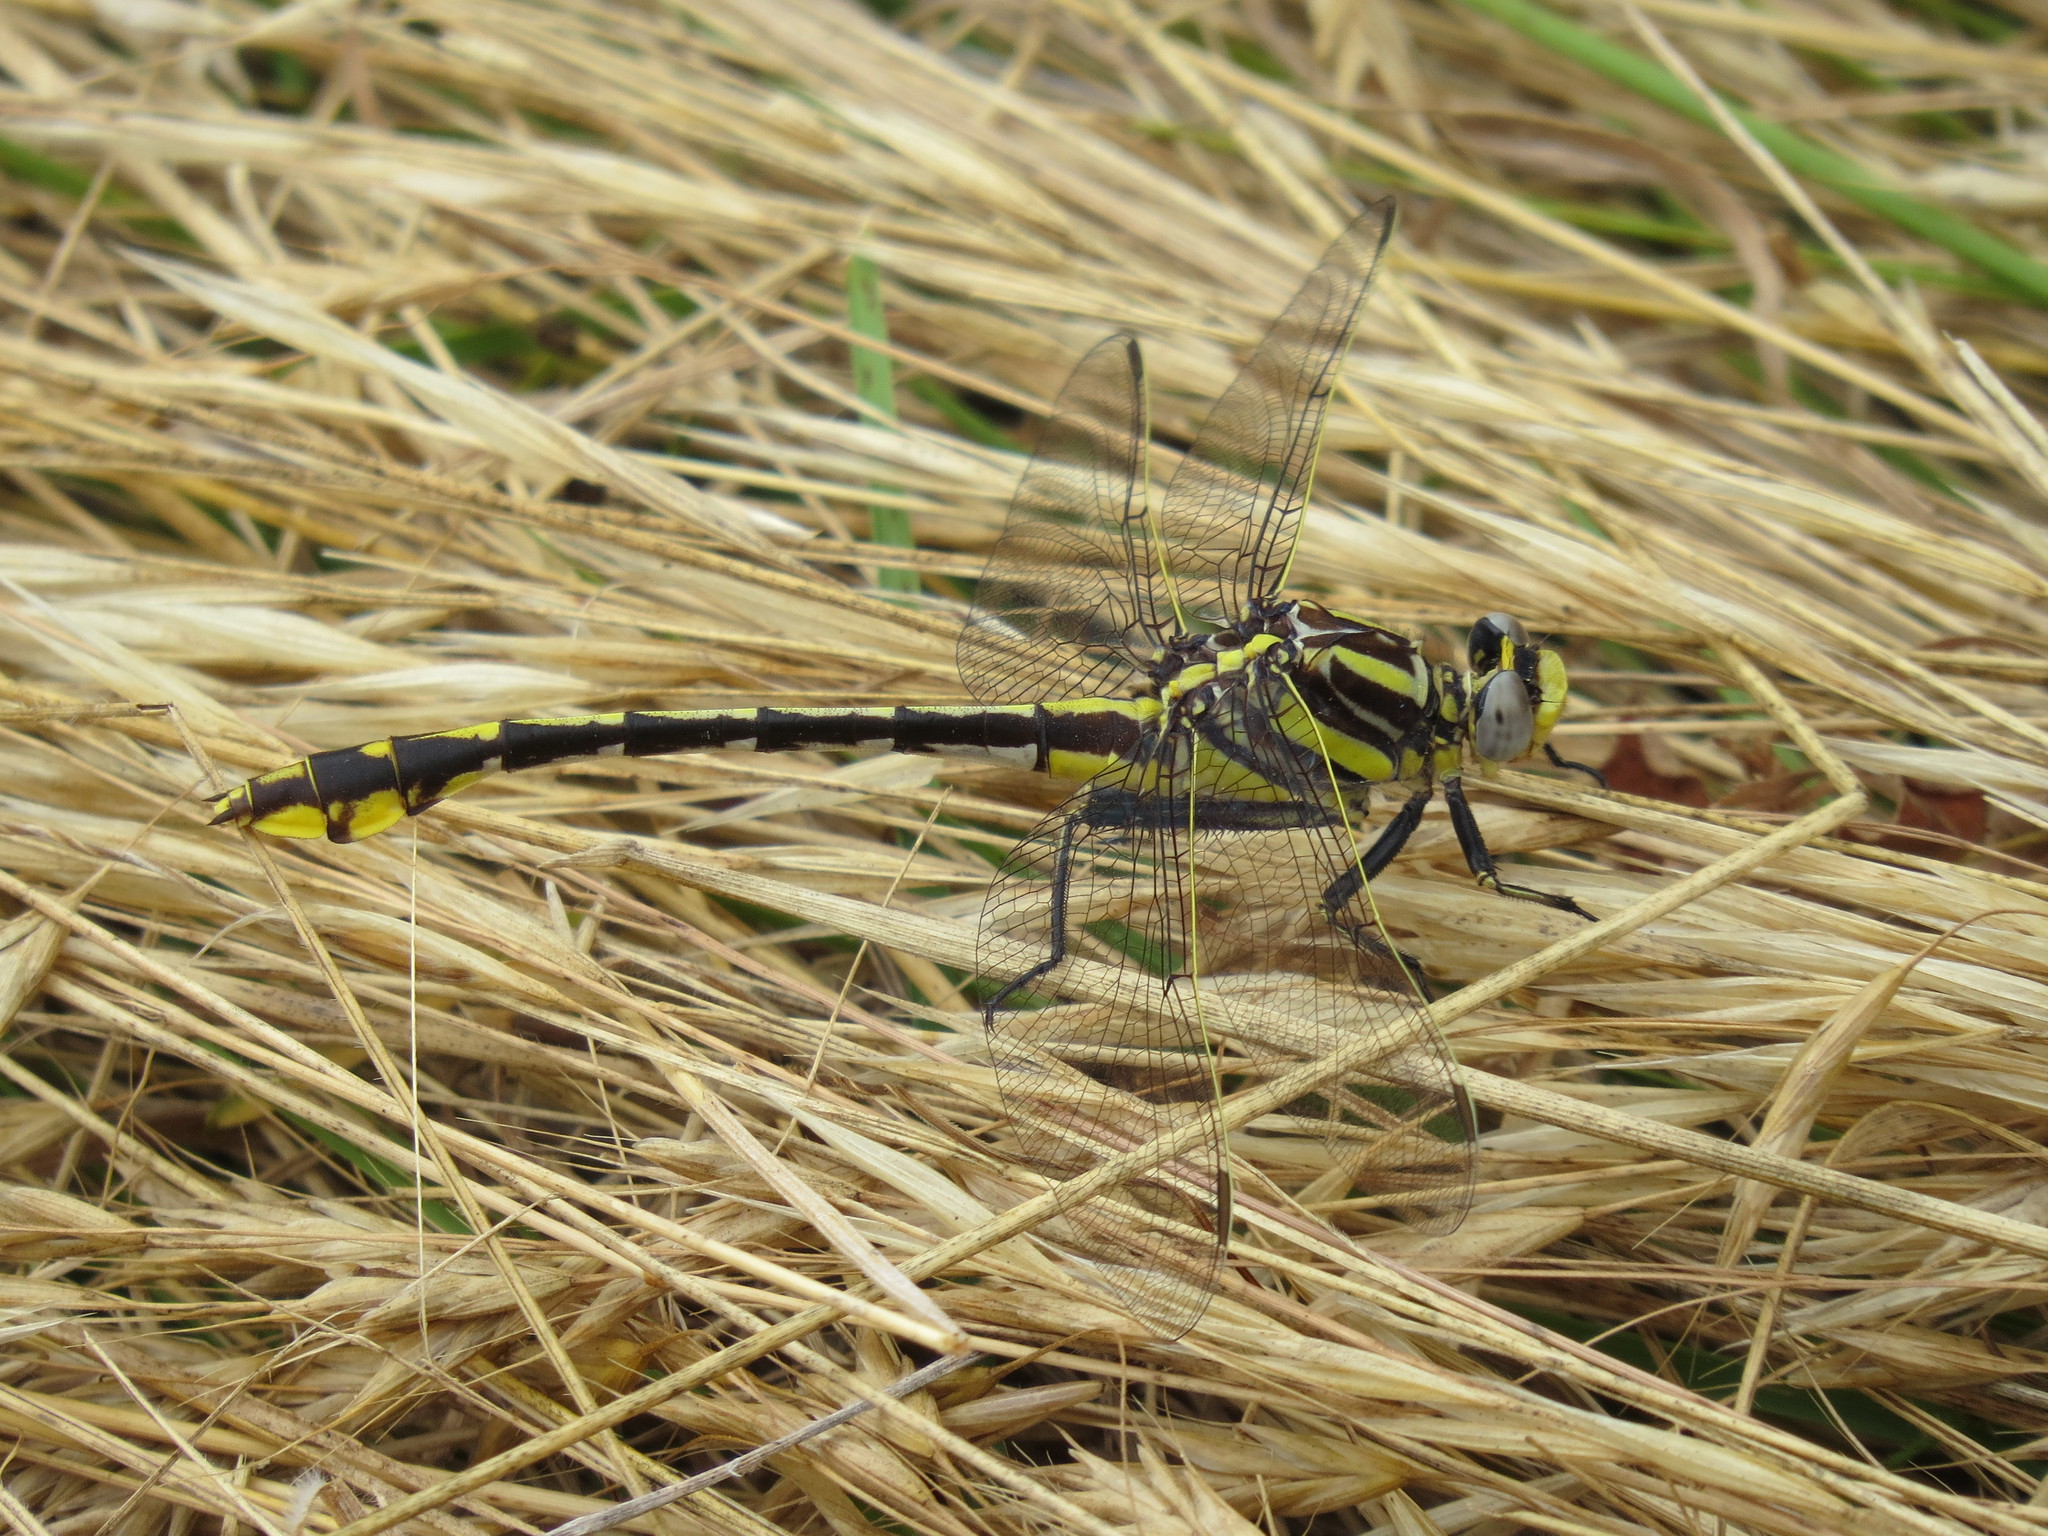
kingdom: Animalia
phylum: Arthropoda
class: Insecta
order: Odonata
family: Gomphidae
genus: Gomphurus
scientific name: Gomphurus externus
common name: Plains clubtail
